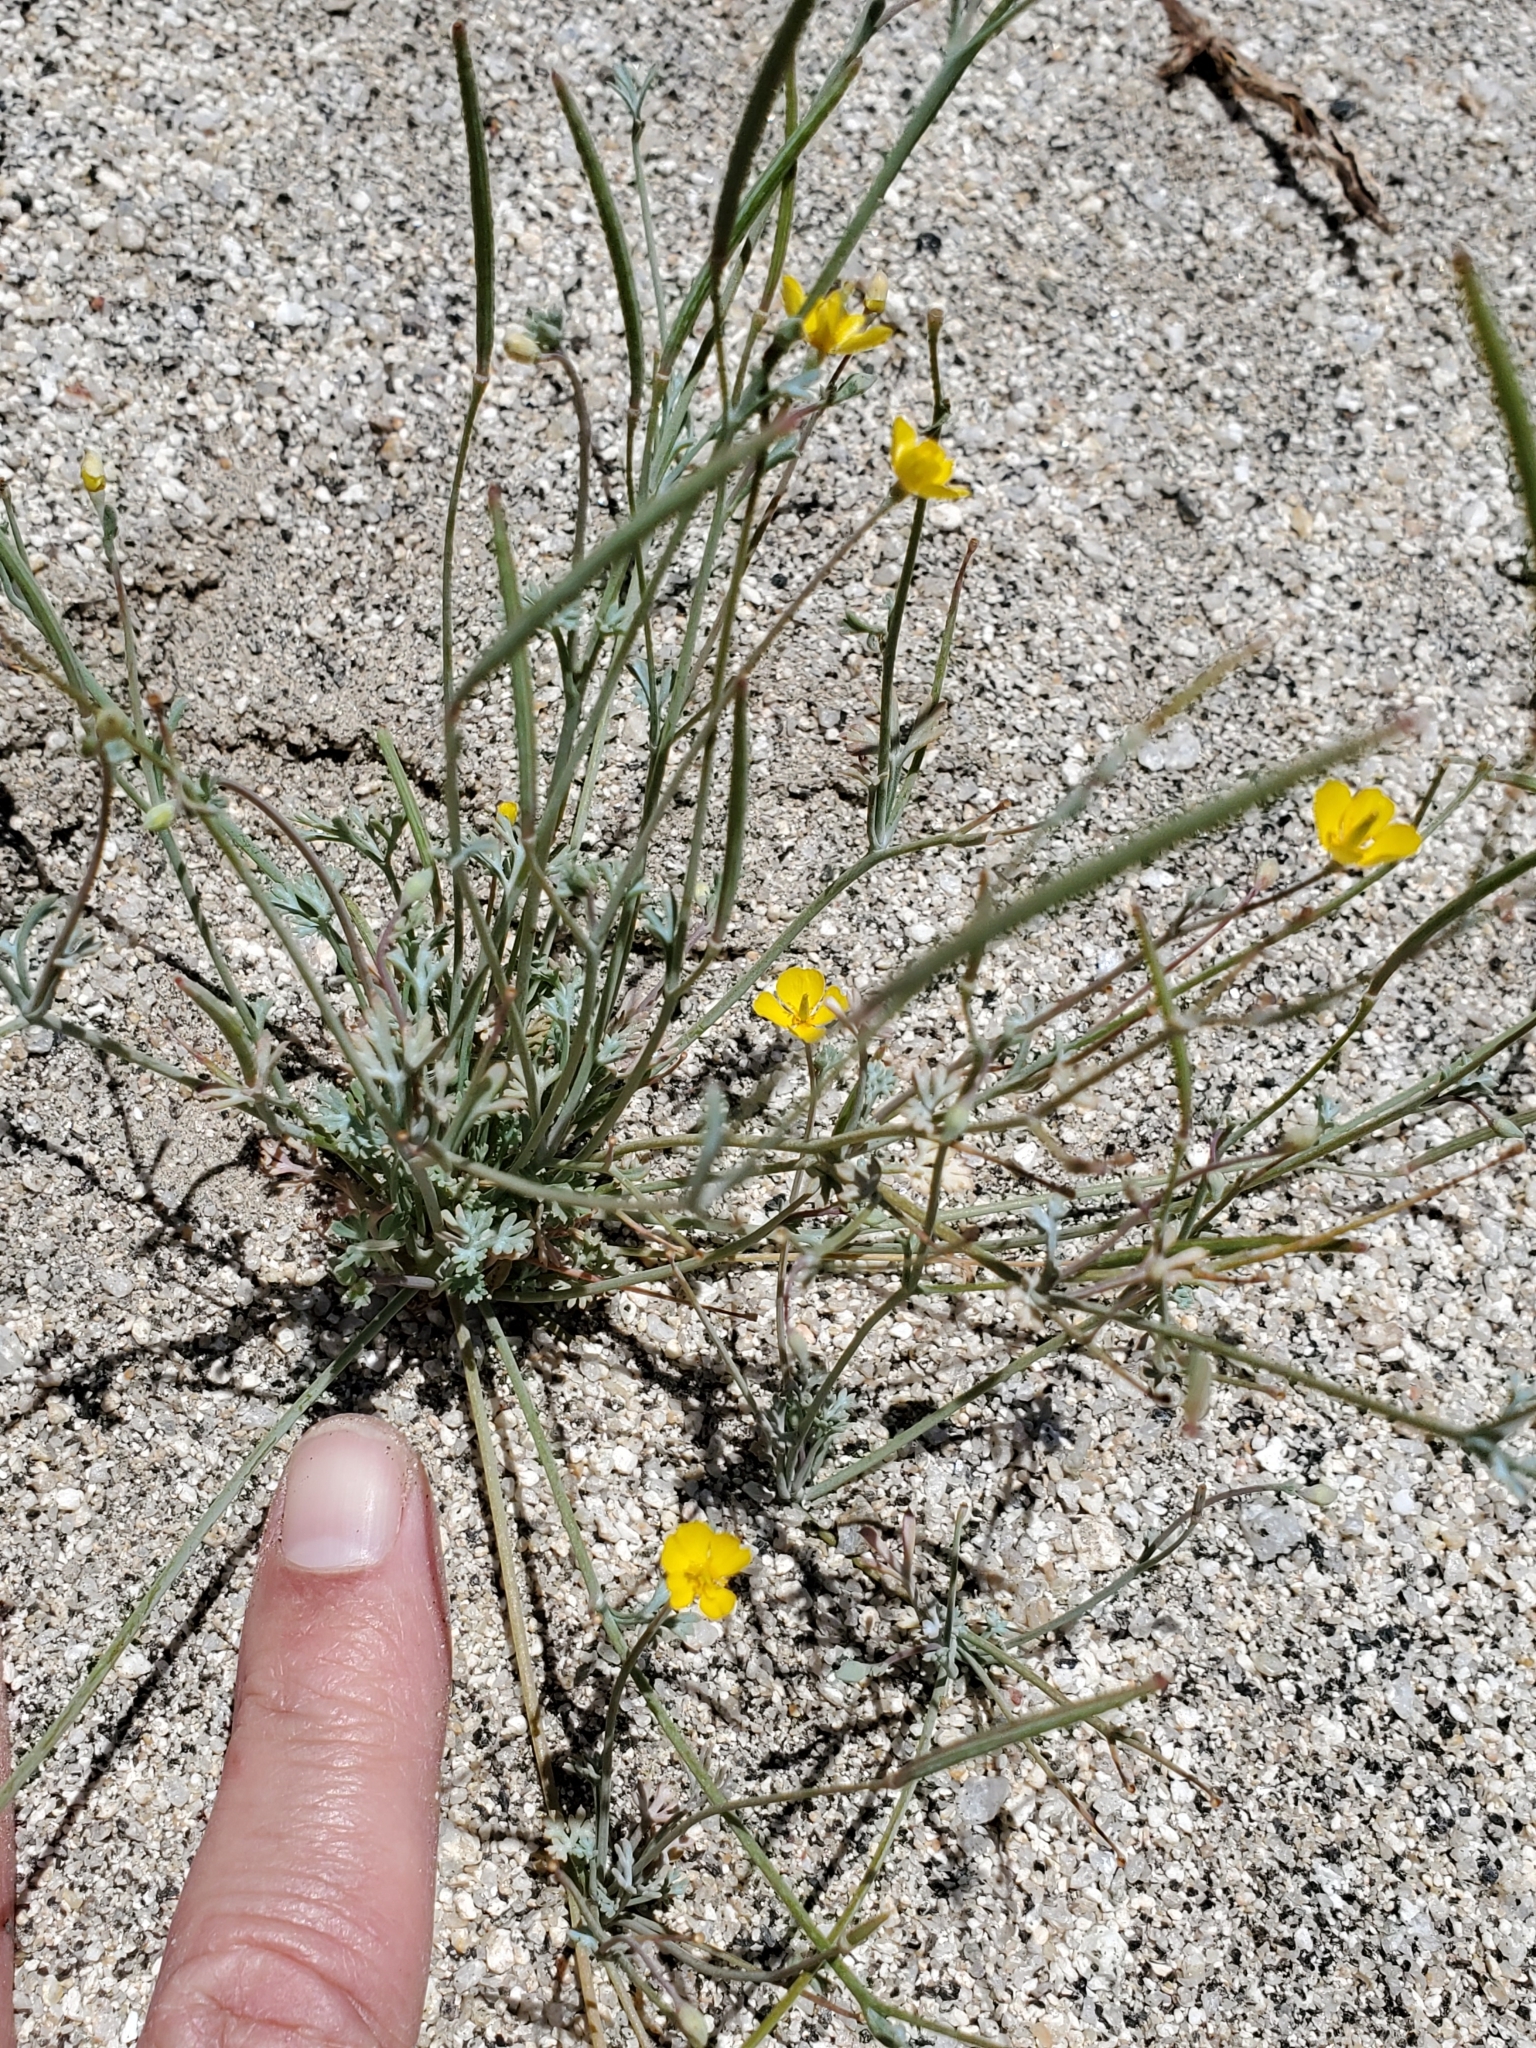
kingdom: Plantae
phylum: Tracheophyta
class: Magnoliopsida
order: Ranunculales
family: Papaveraceae
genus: Eschscholzia
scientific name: Eschscholzia minutiflora
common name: Small-flower california-poppy
